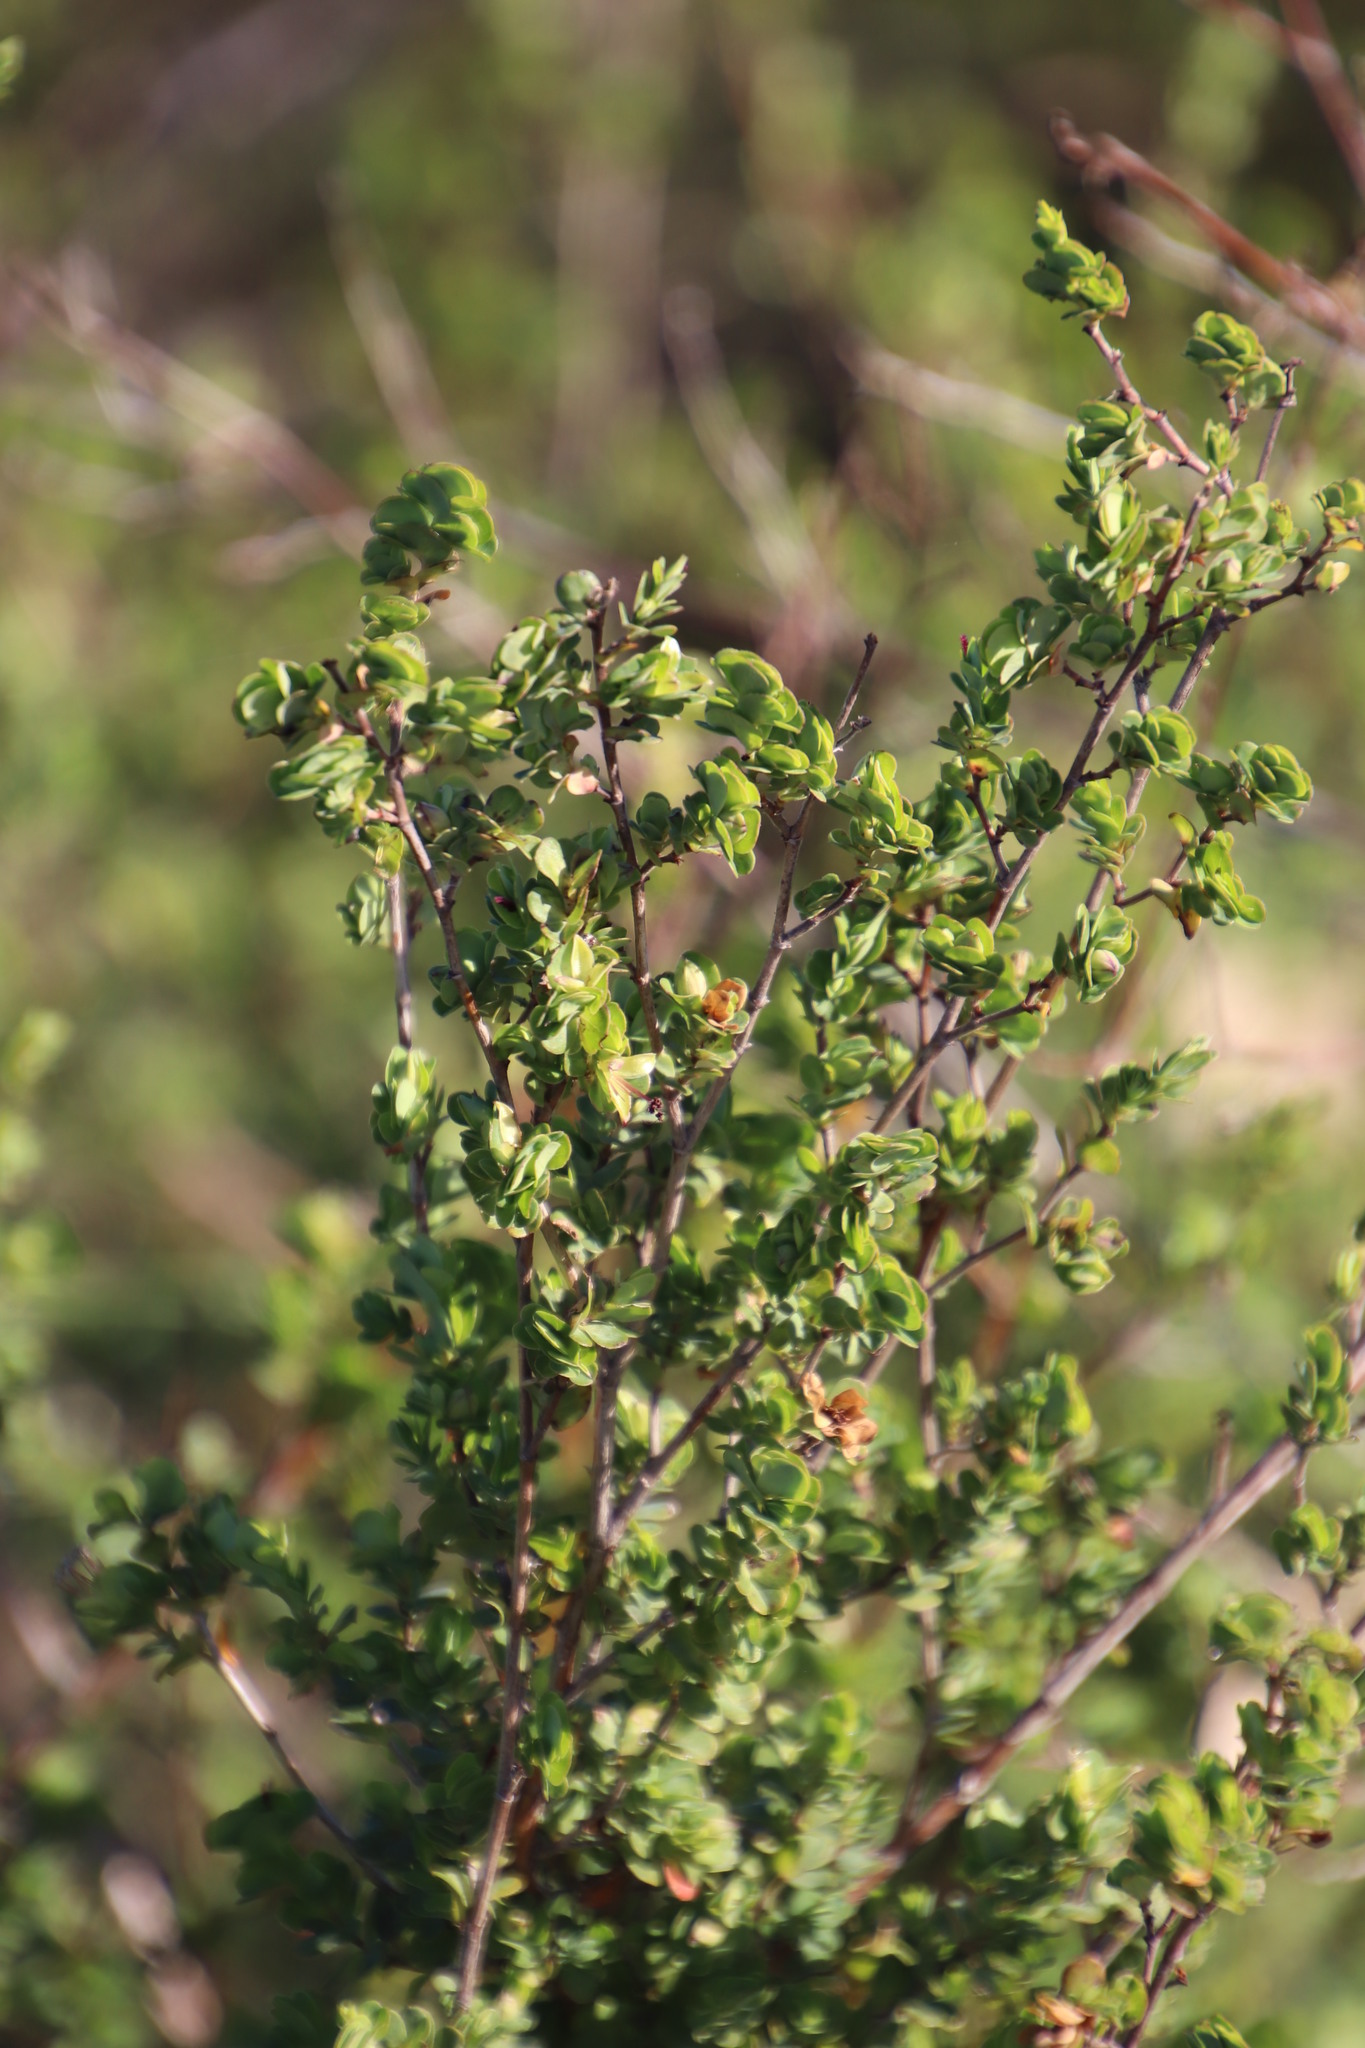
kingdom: Plantae
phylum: Tracheophyta
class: Magnoliopsida
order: Rosales
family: Rosaceae
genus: Cliffortia
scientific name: Cliffortia obcordata
